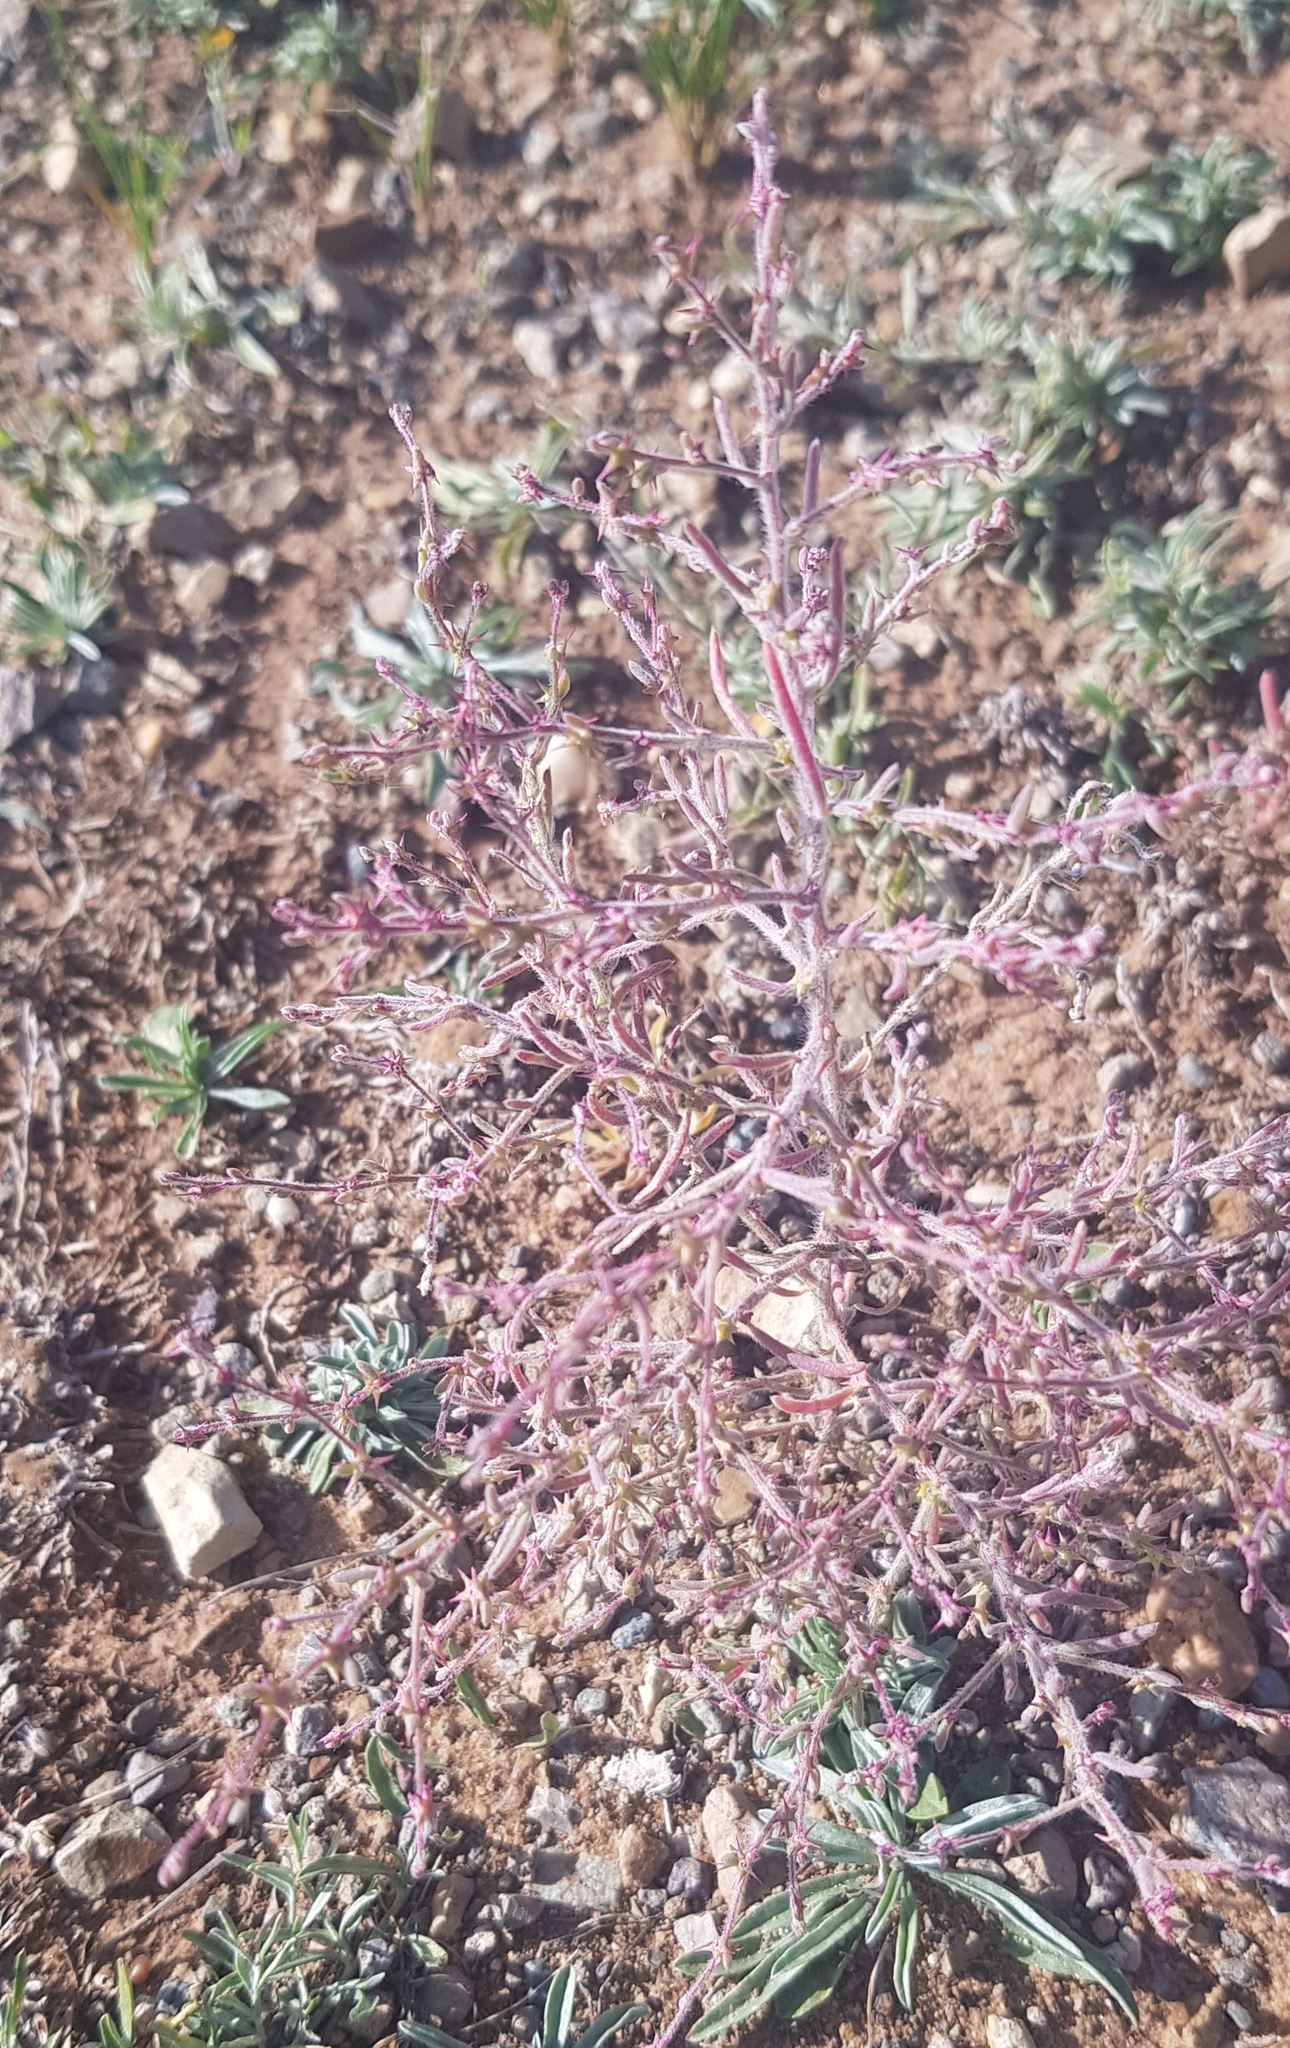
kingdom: Plantae
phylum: Tracheophyta
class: Magnoliopsida
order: Caryophyllales
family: Amaranthaceae
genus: Grubovia
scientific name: Grubovia dasyphylla
